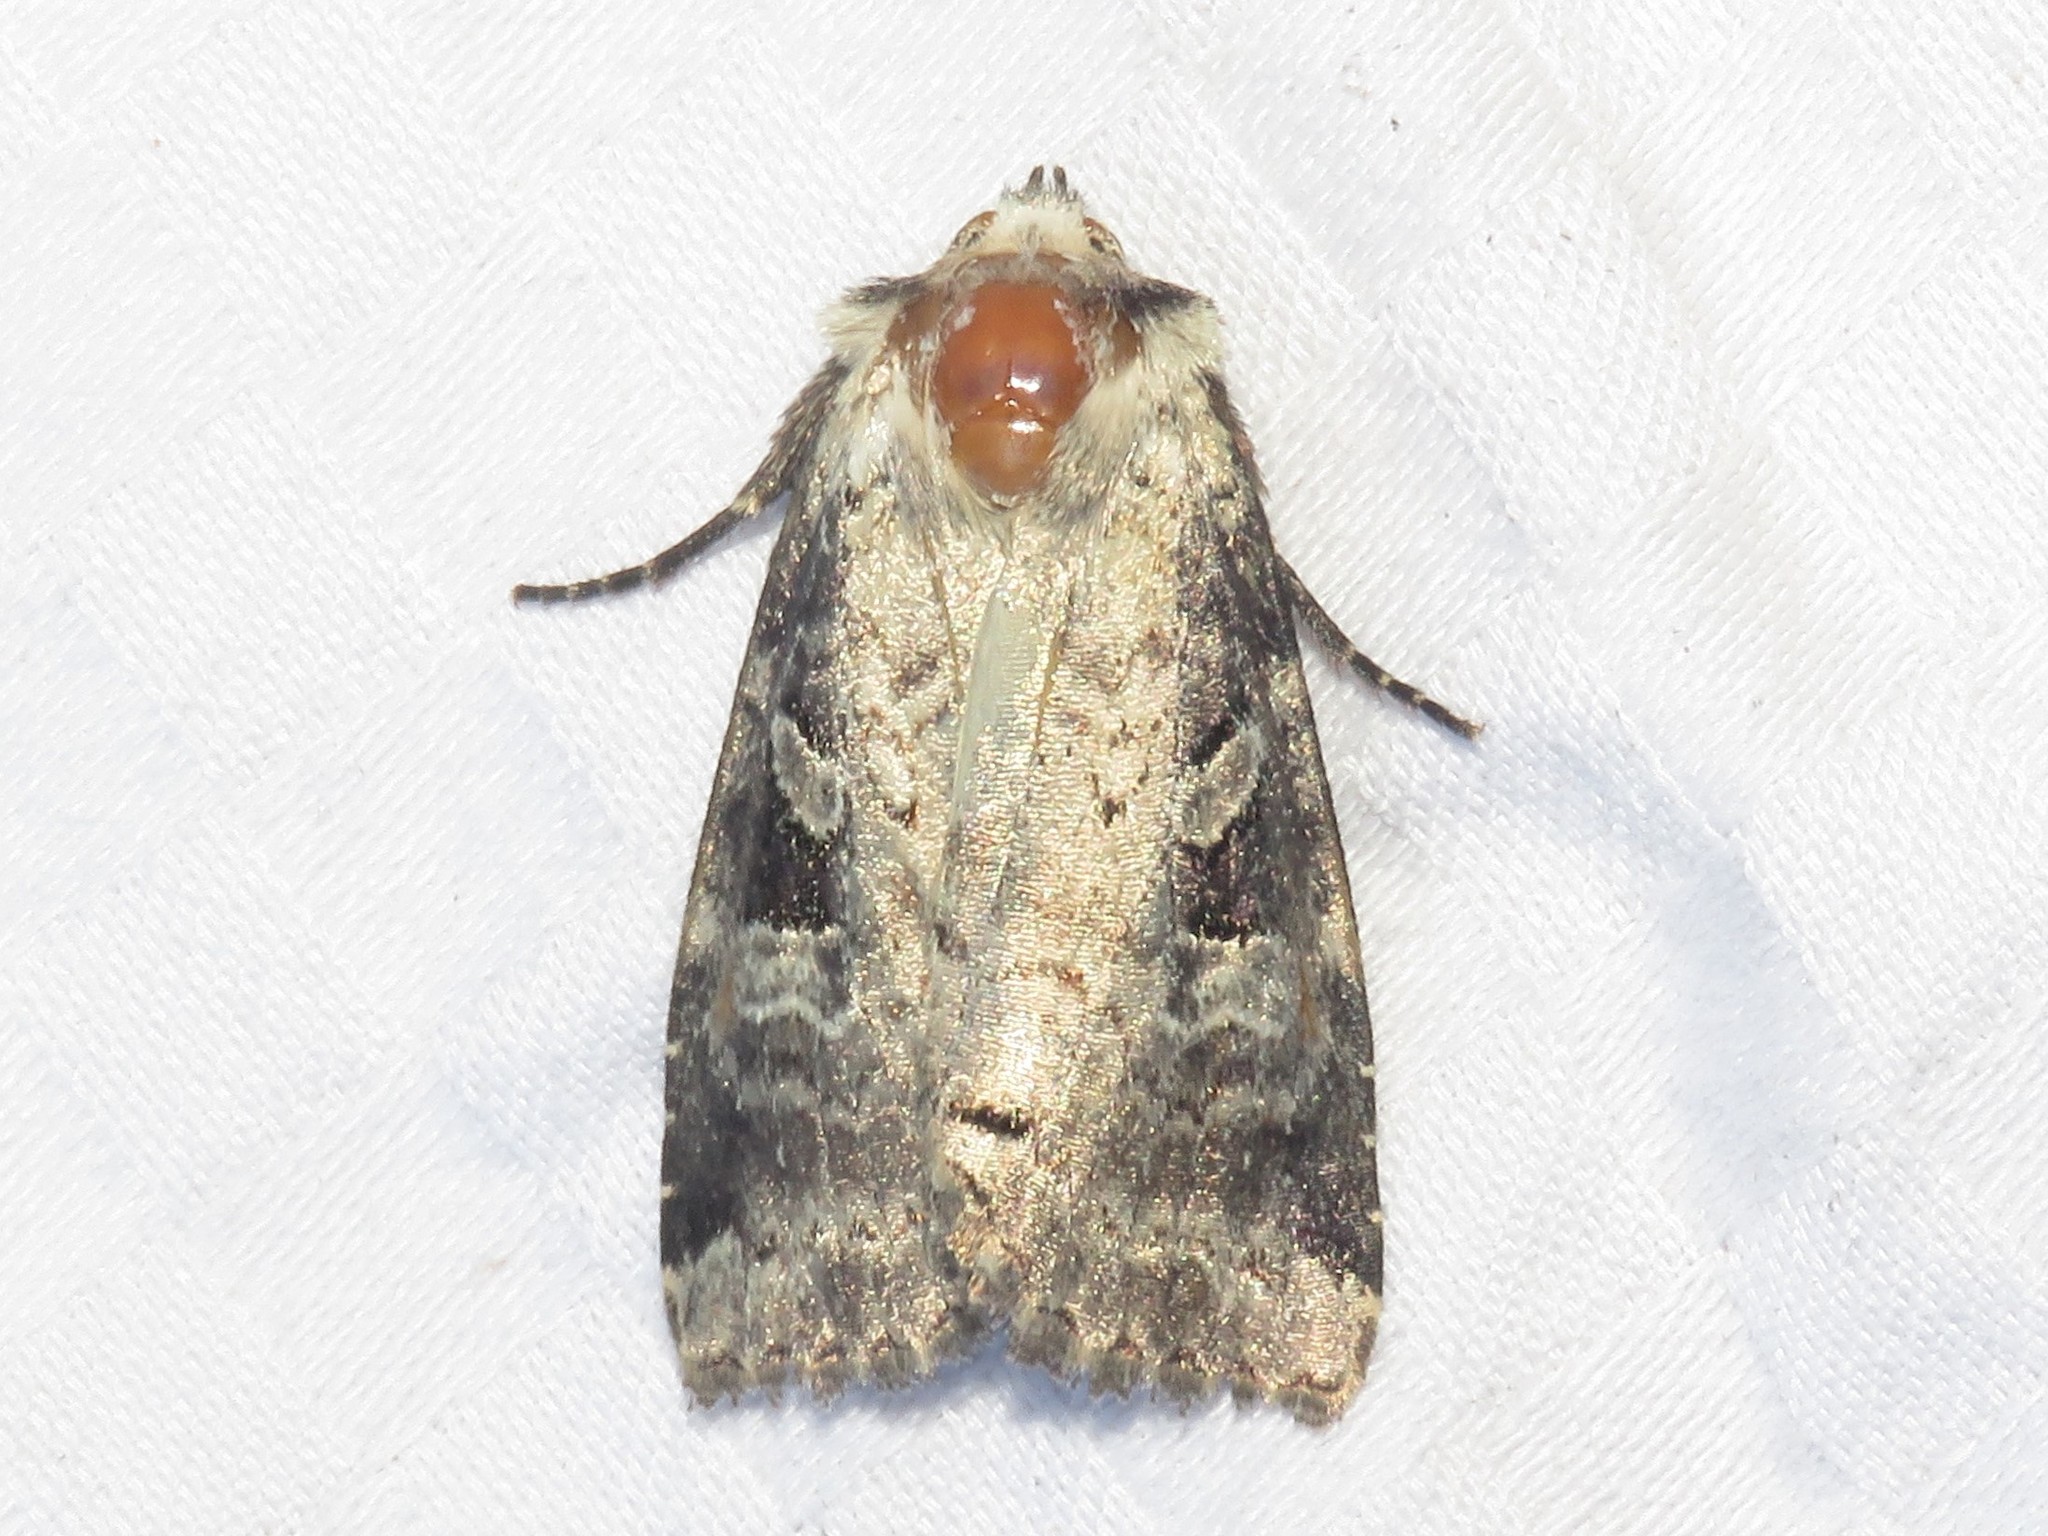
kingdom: Animalia
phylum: Arthropoda
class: Insecta
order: Lepidoptera
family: Noctuidae
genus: Hillia
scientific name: Hillia iris
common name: Iris rover moth
